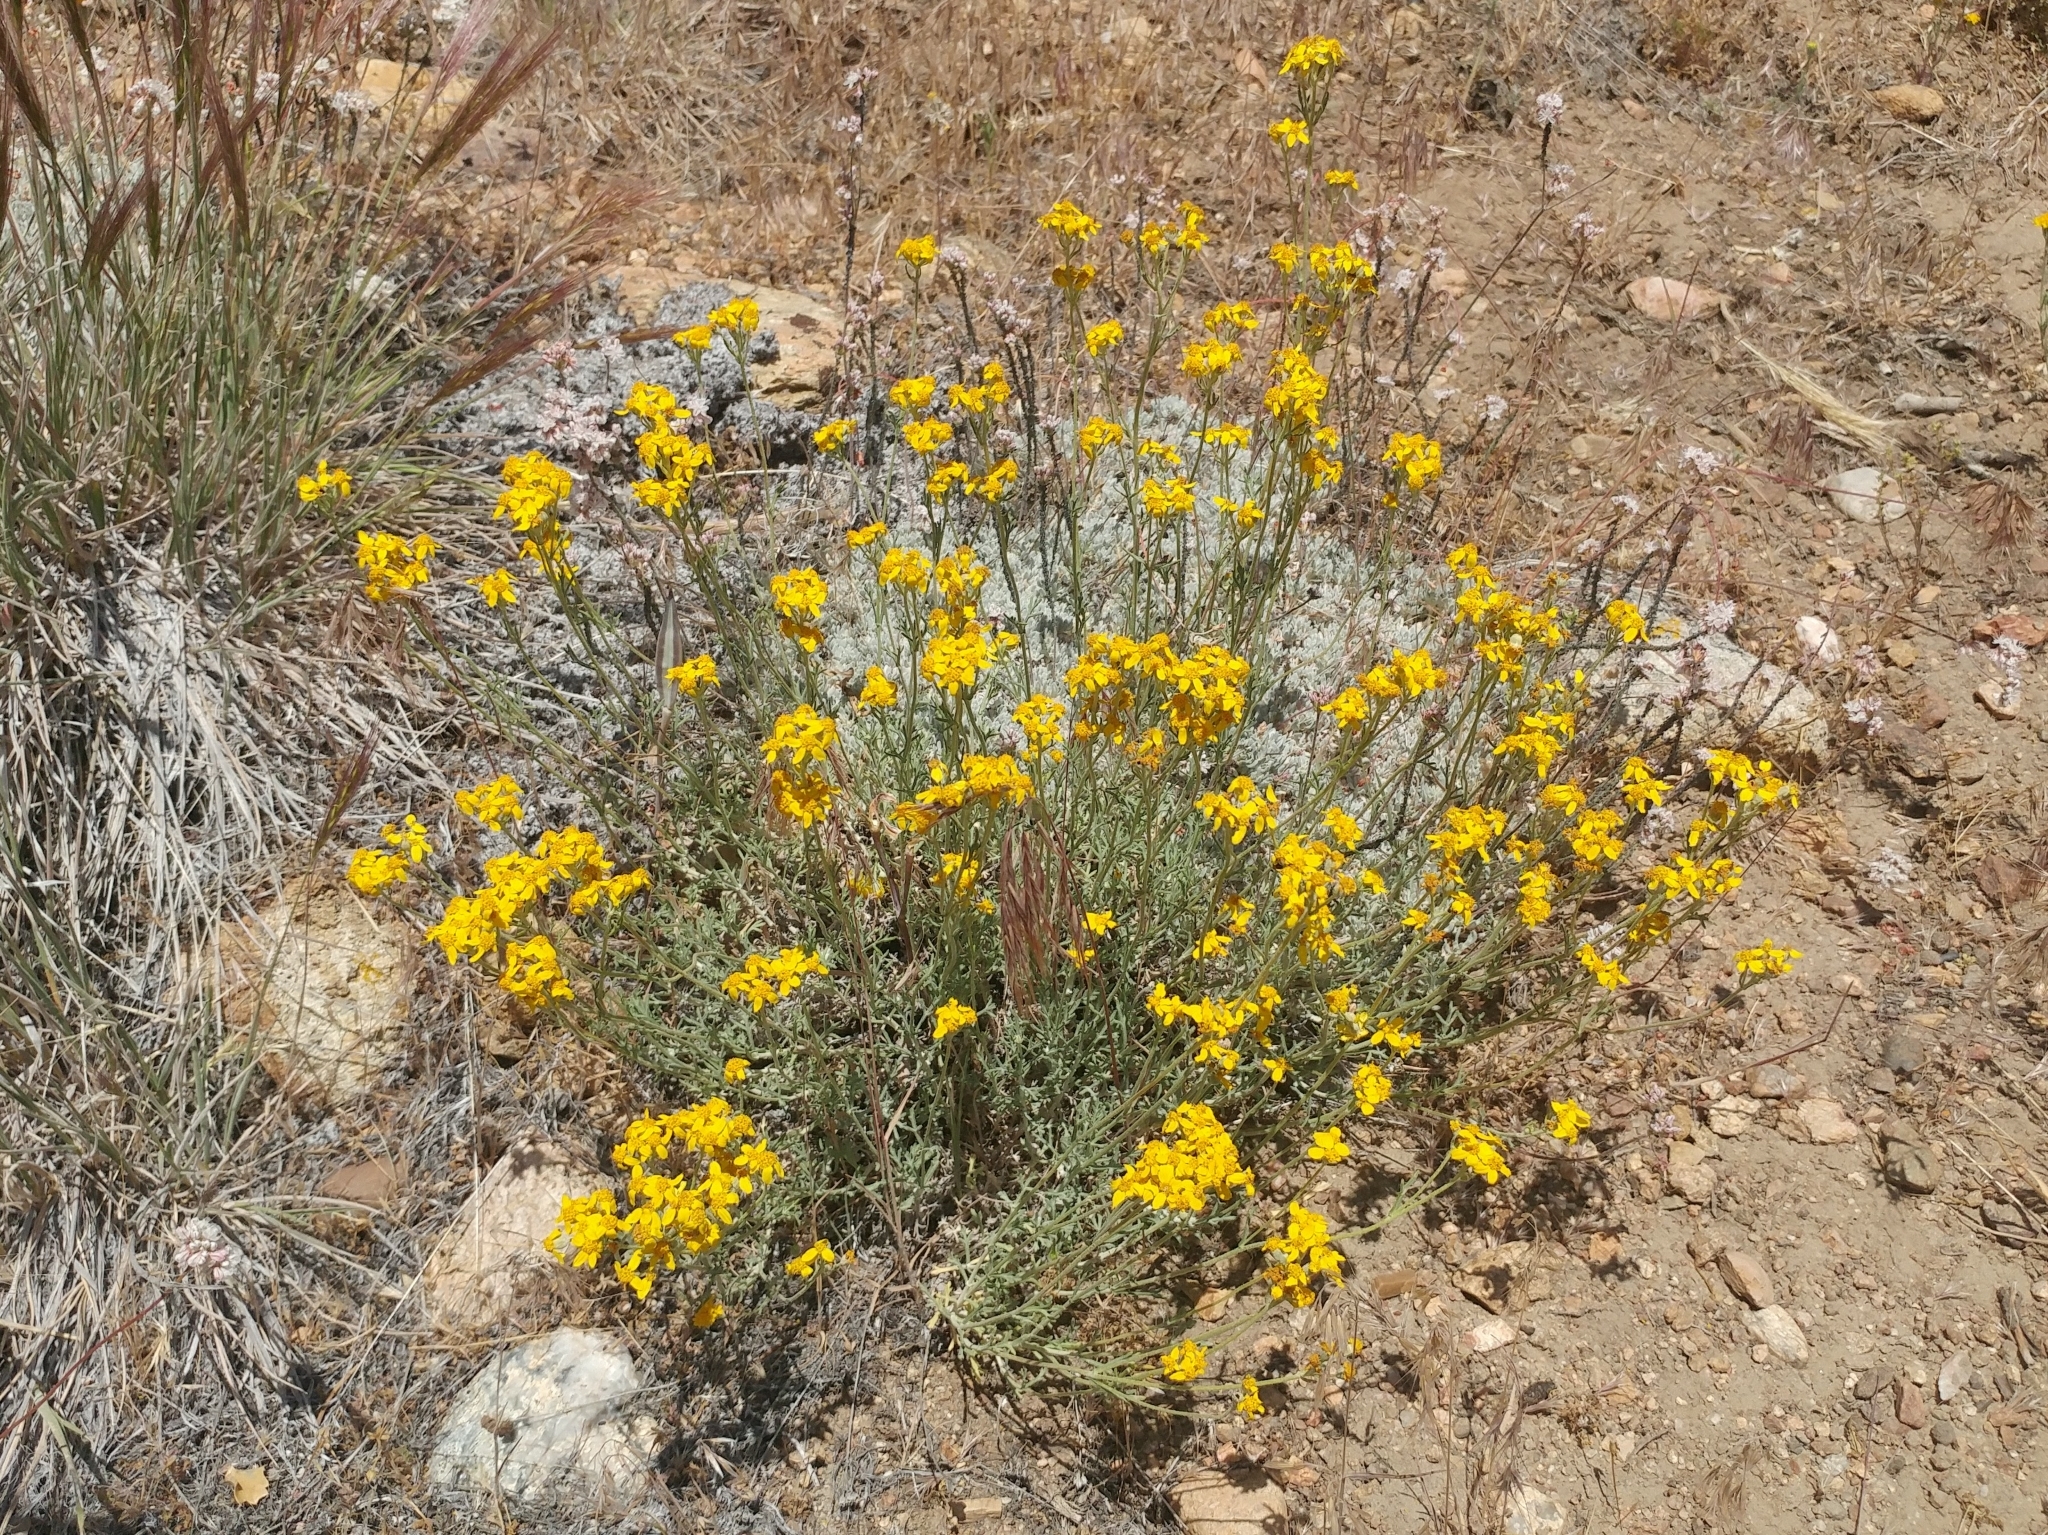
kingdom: Plantae
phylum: Tracheophyta
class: Magnoliopsida
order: Asterales
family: Asteraceae
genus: Eriophyllum
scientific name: Eriophyllum confertiflorum
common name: Golden-yarrow
